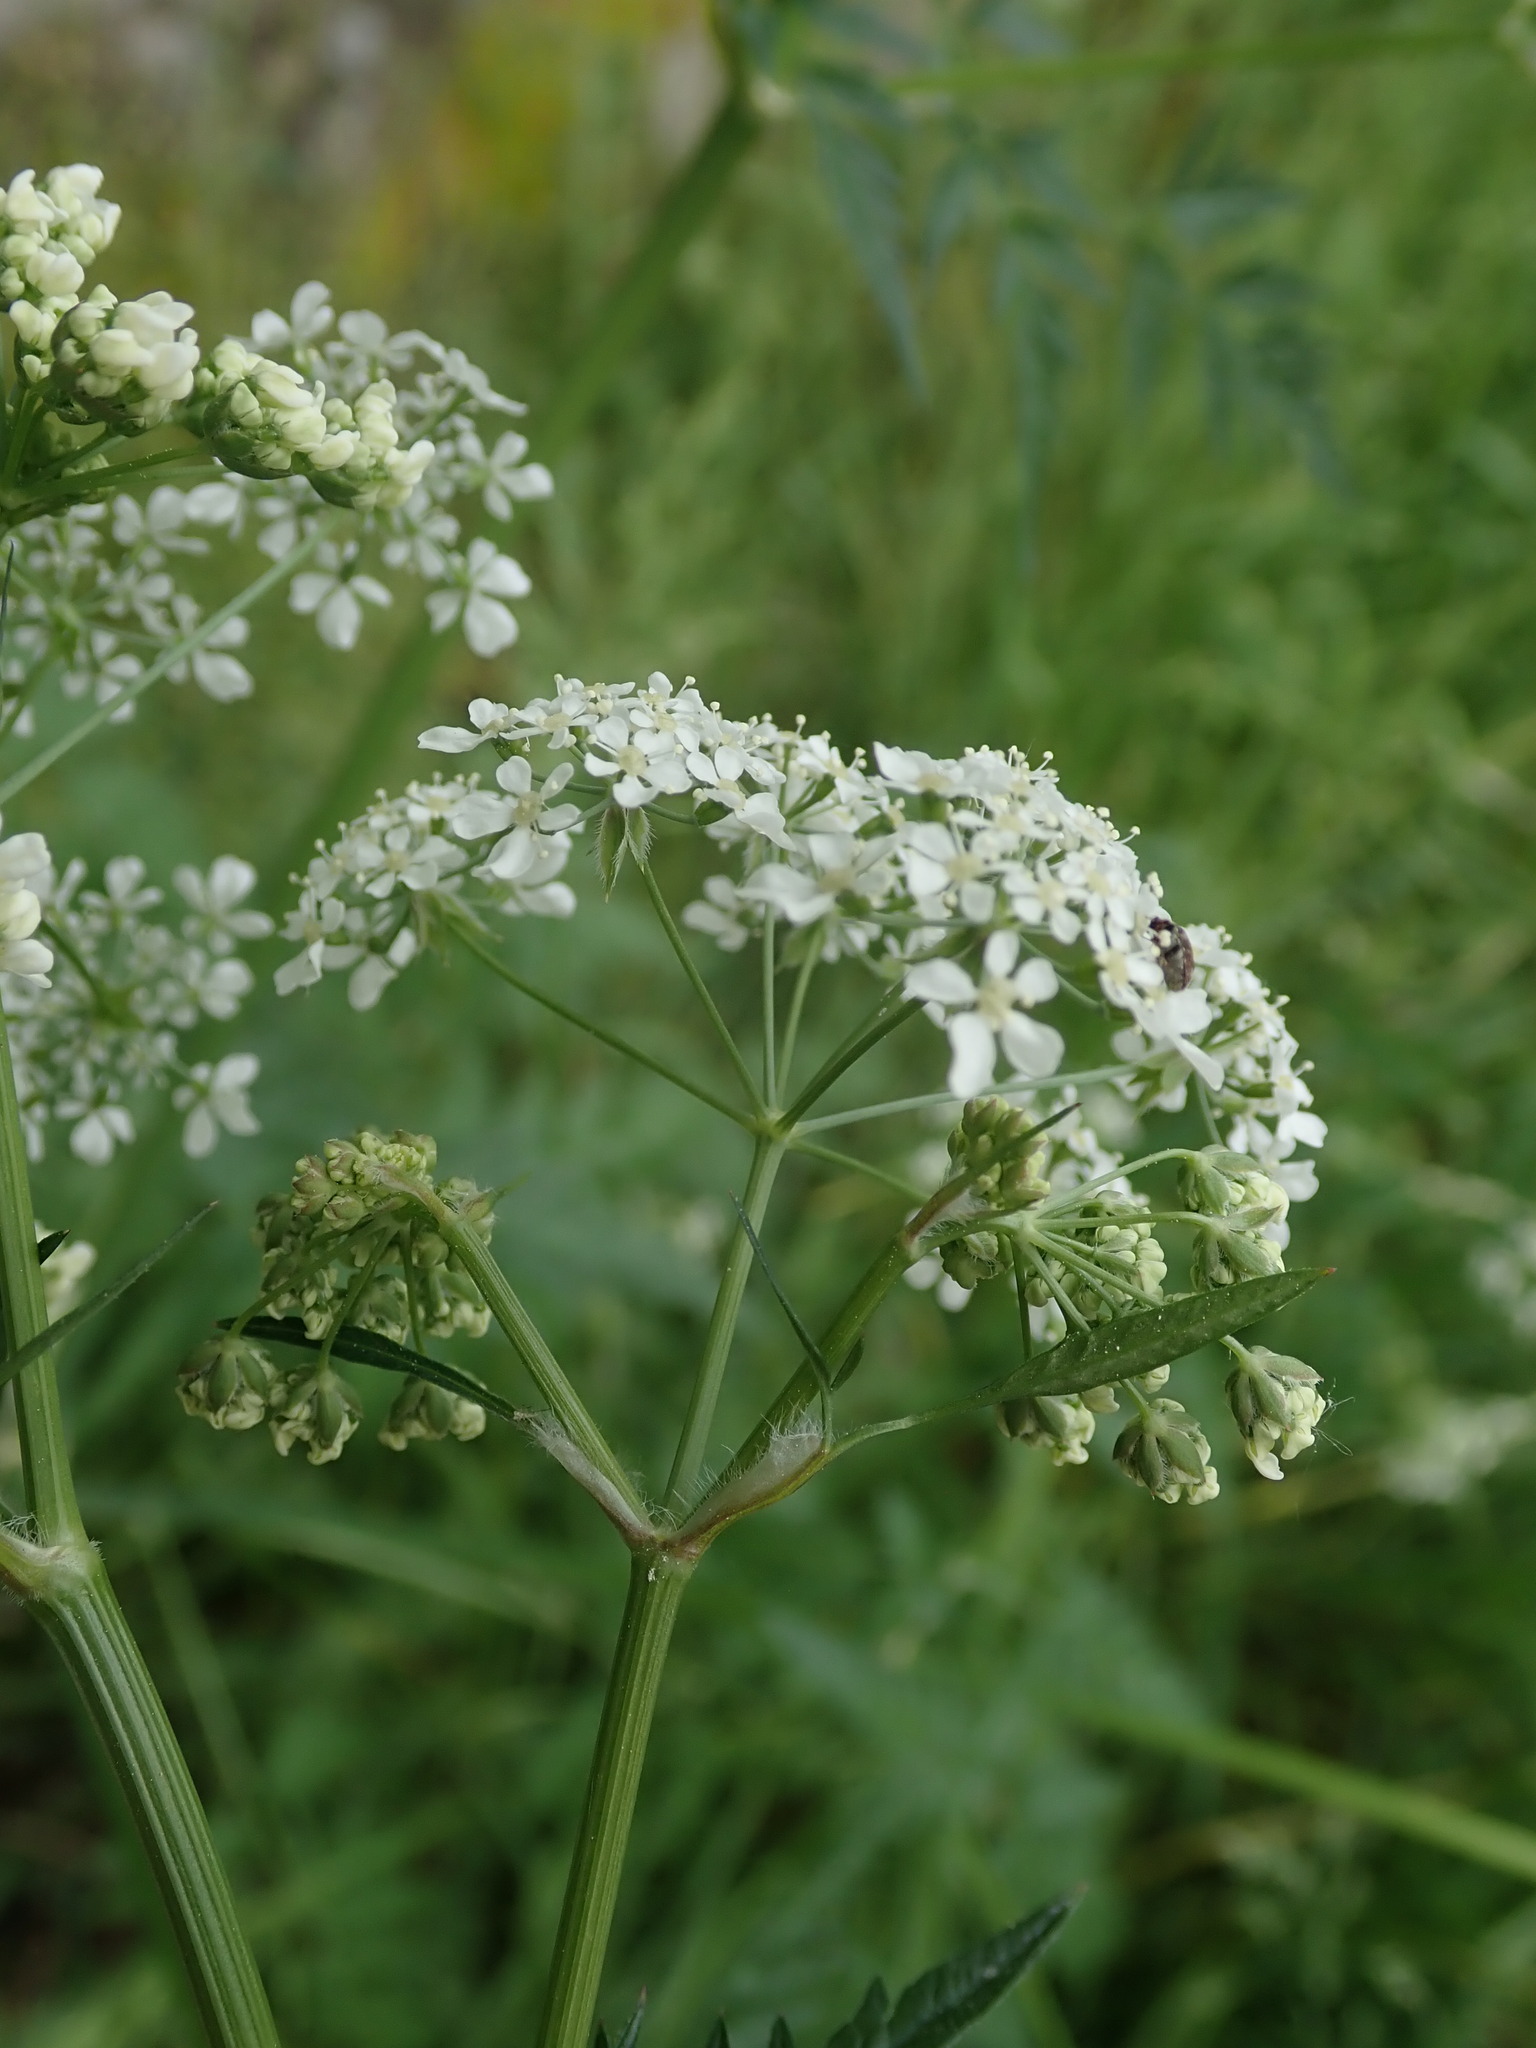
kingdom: Plantae
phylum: Tracheophyta
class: Magnoliopsida
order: Apiales
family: Apiaceae
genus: Anthriscus
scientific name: Anthriscus sylvestris
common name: Cow parsley
